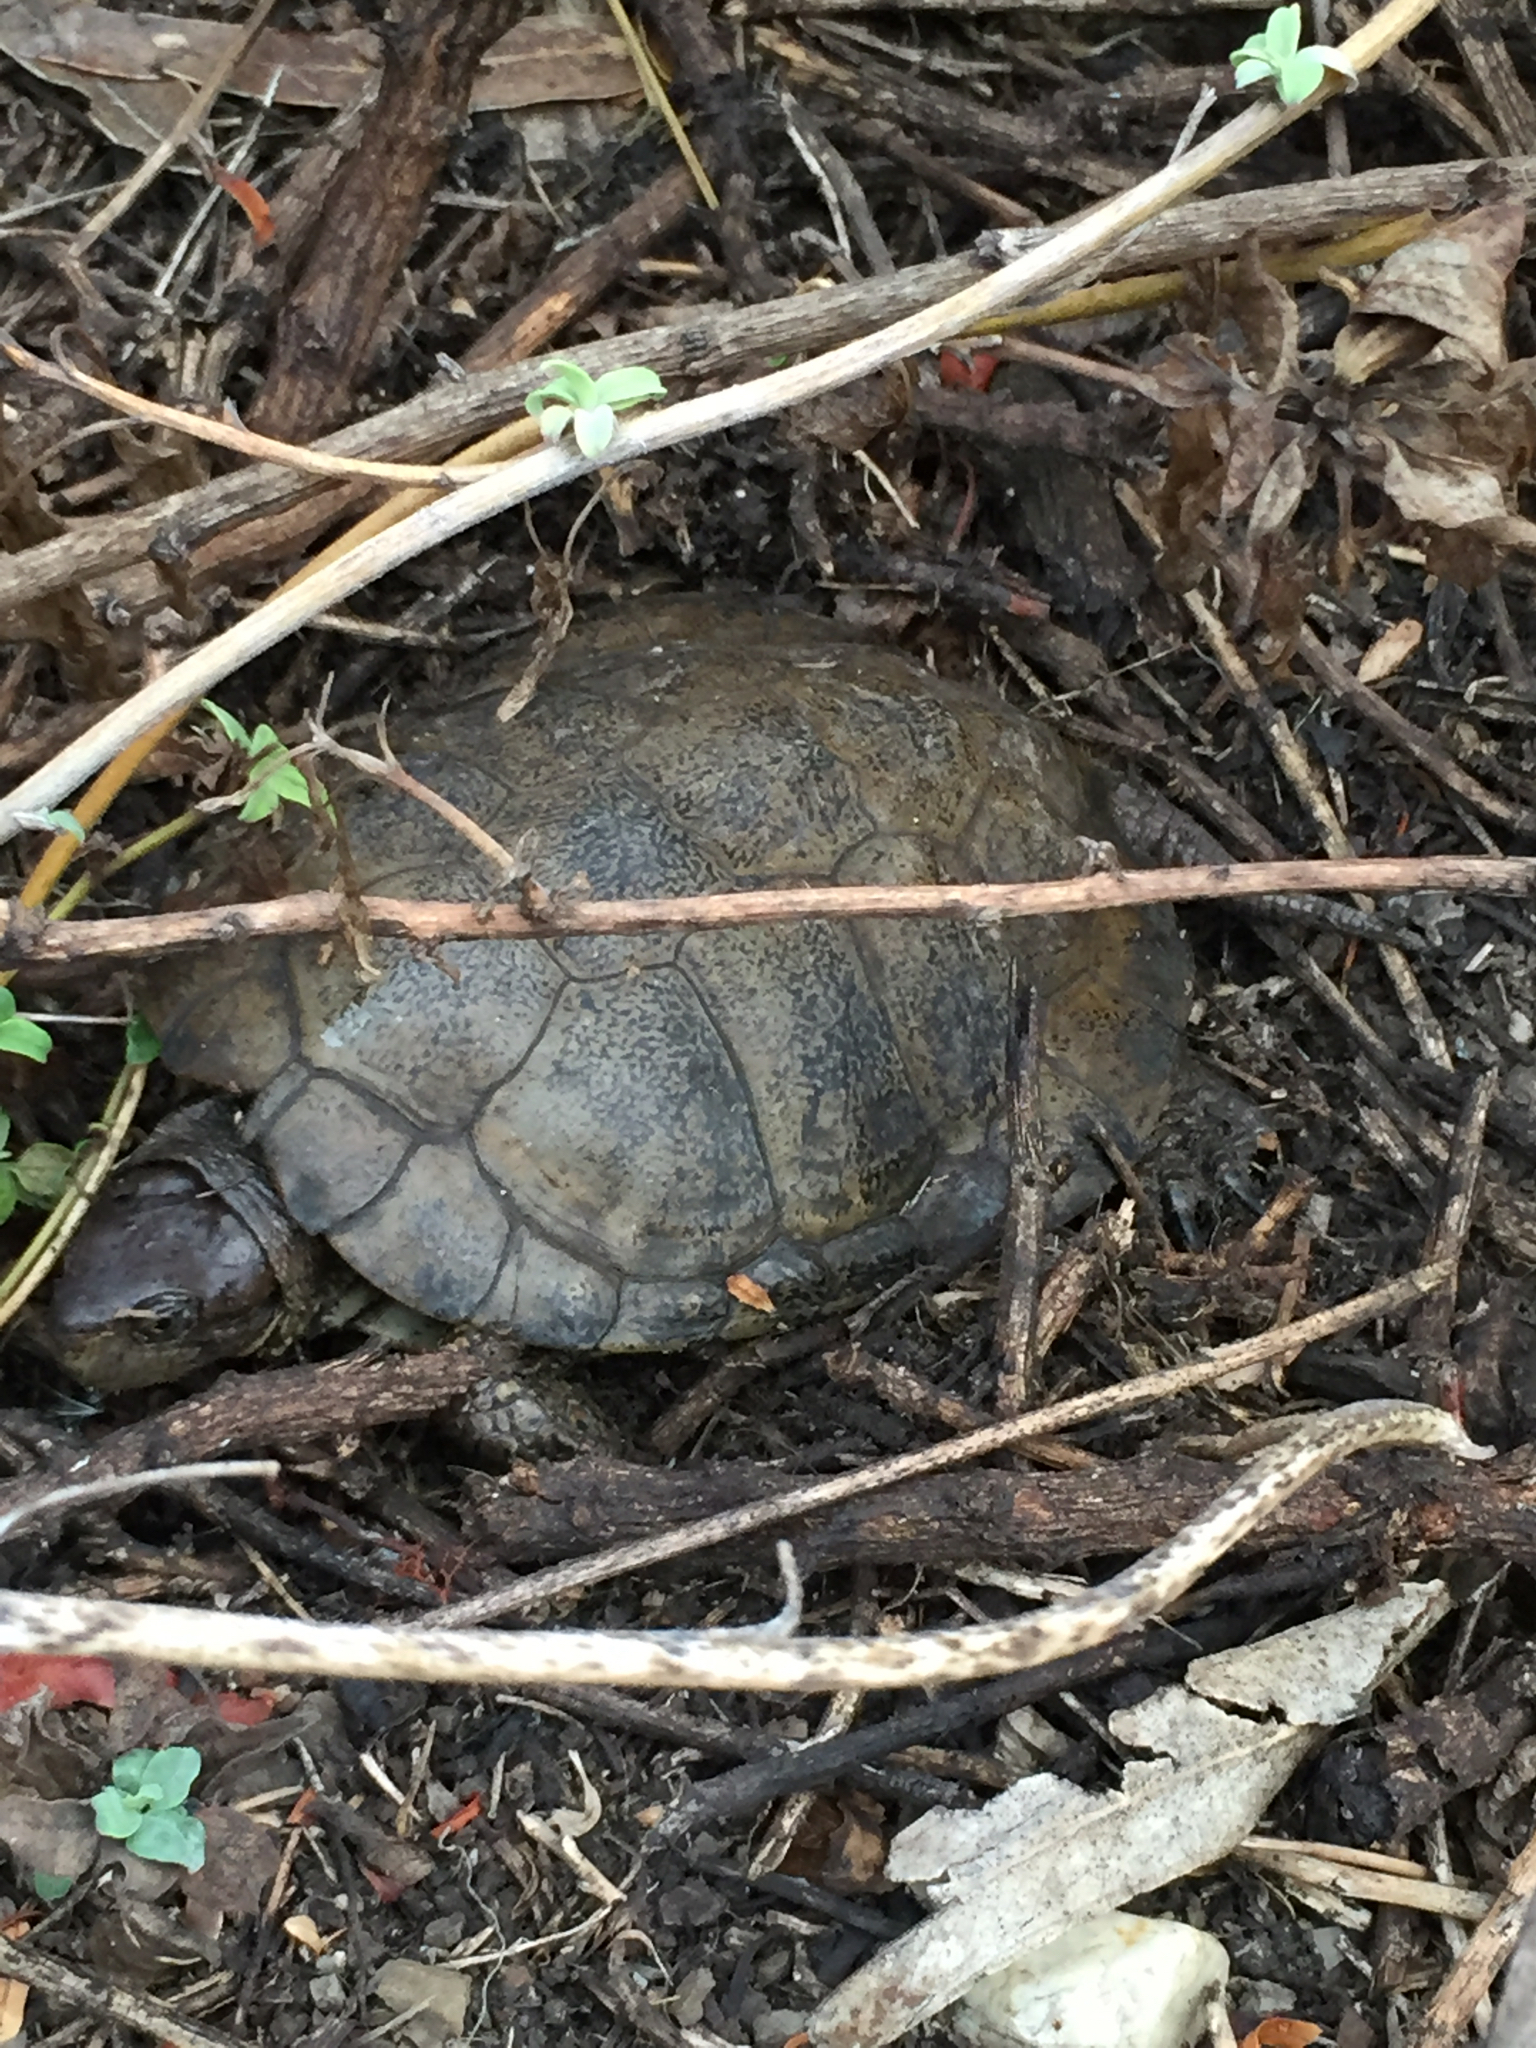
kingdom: Animalia
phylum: Chordata
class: Testudines
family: Emydidae
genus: Actinemys
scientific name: Actinemys marmorata
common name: Western pond turtle
